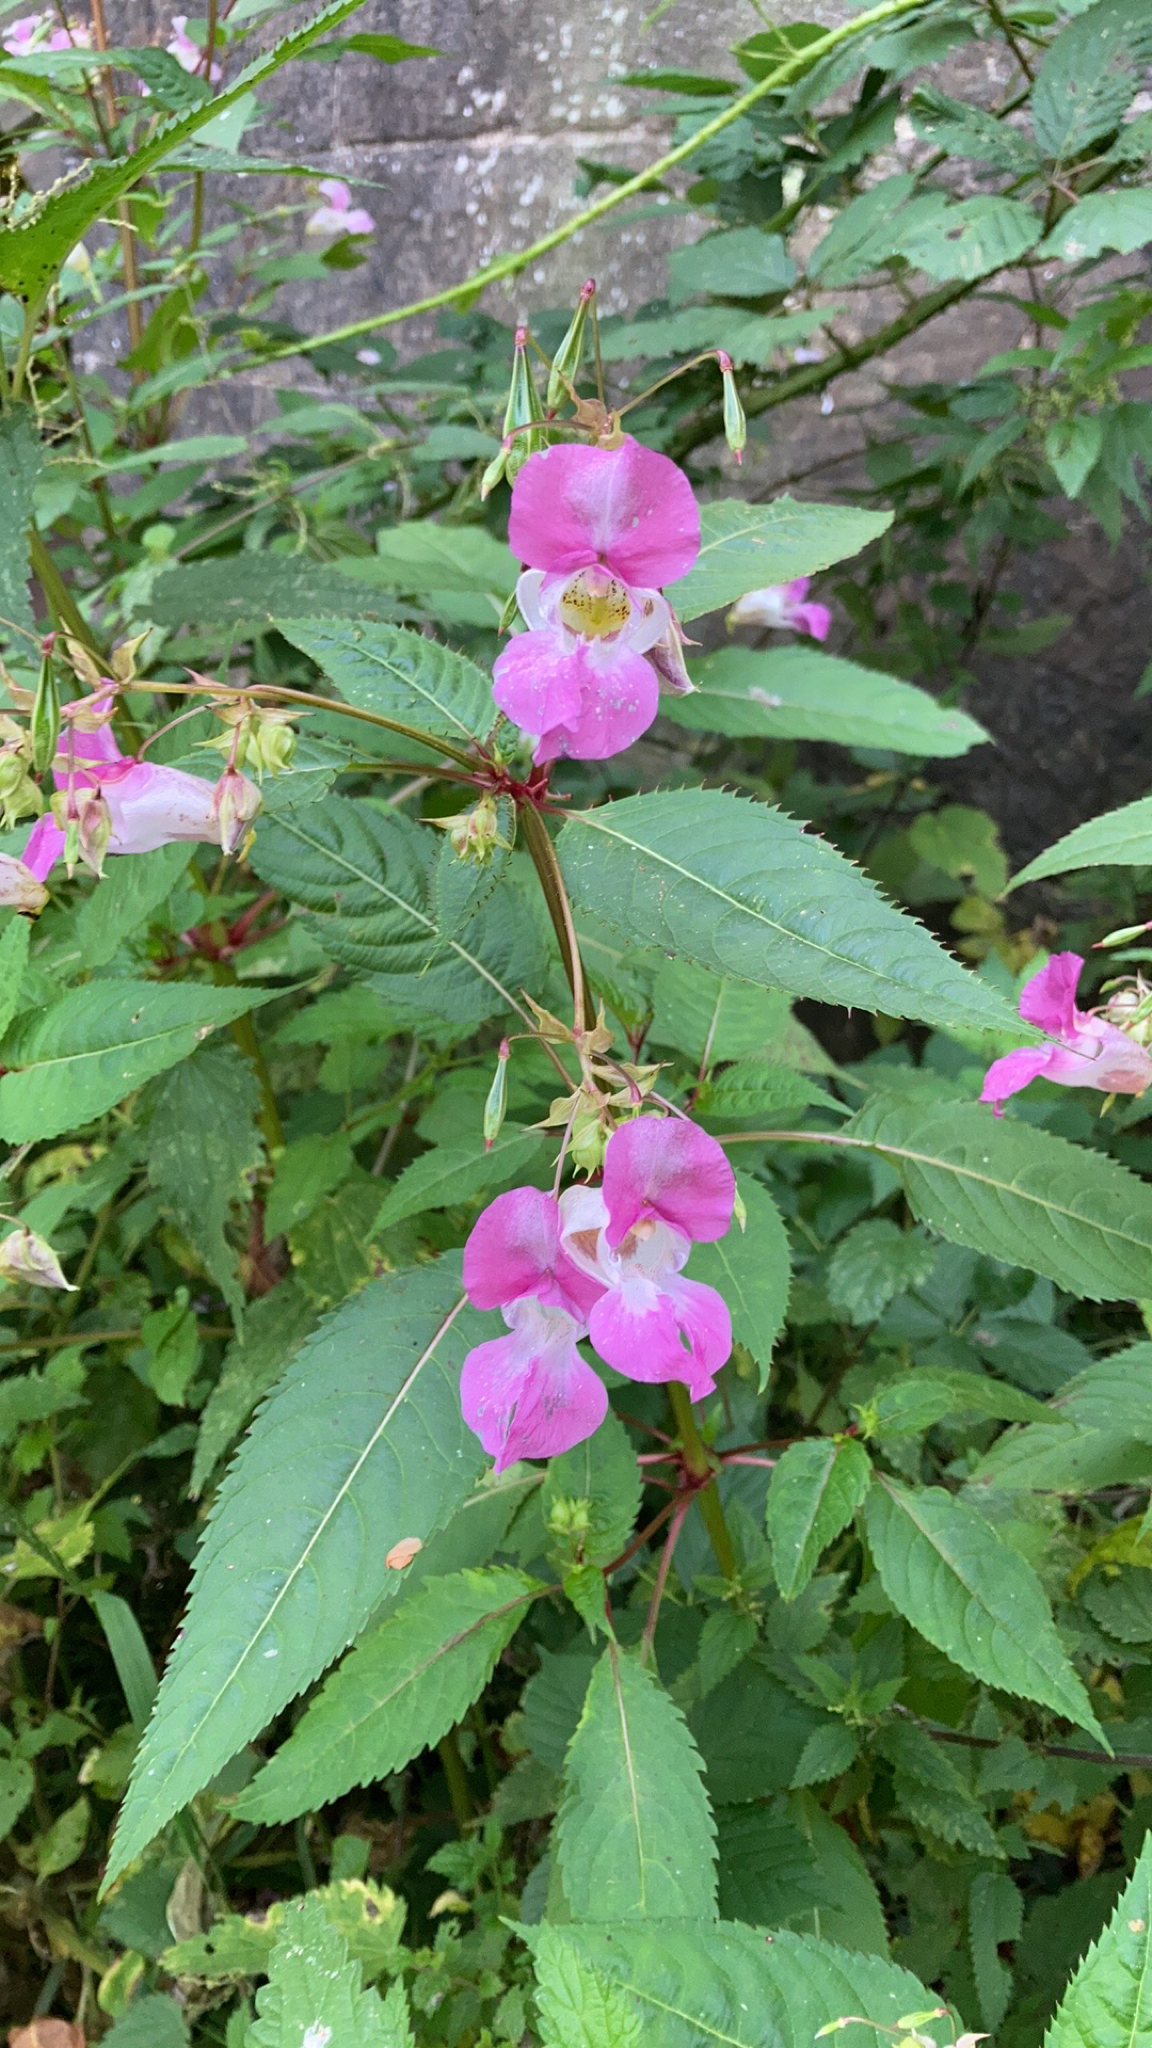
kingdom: Plantae
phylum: Tracheophyta
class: Magnoliopsida
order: Ericales
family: Balsaminaceae
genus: Impatiens
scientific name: Impatiens glandulifera
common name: Himalayan balsam
